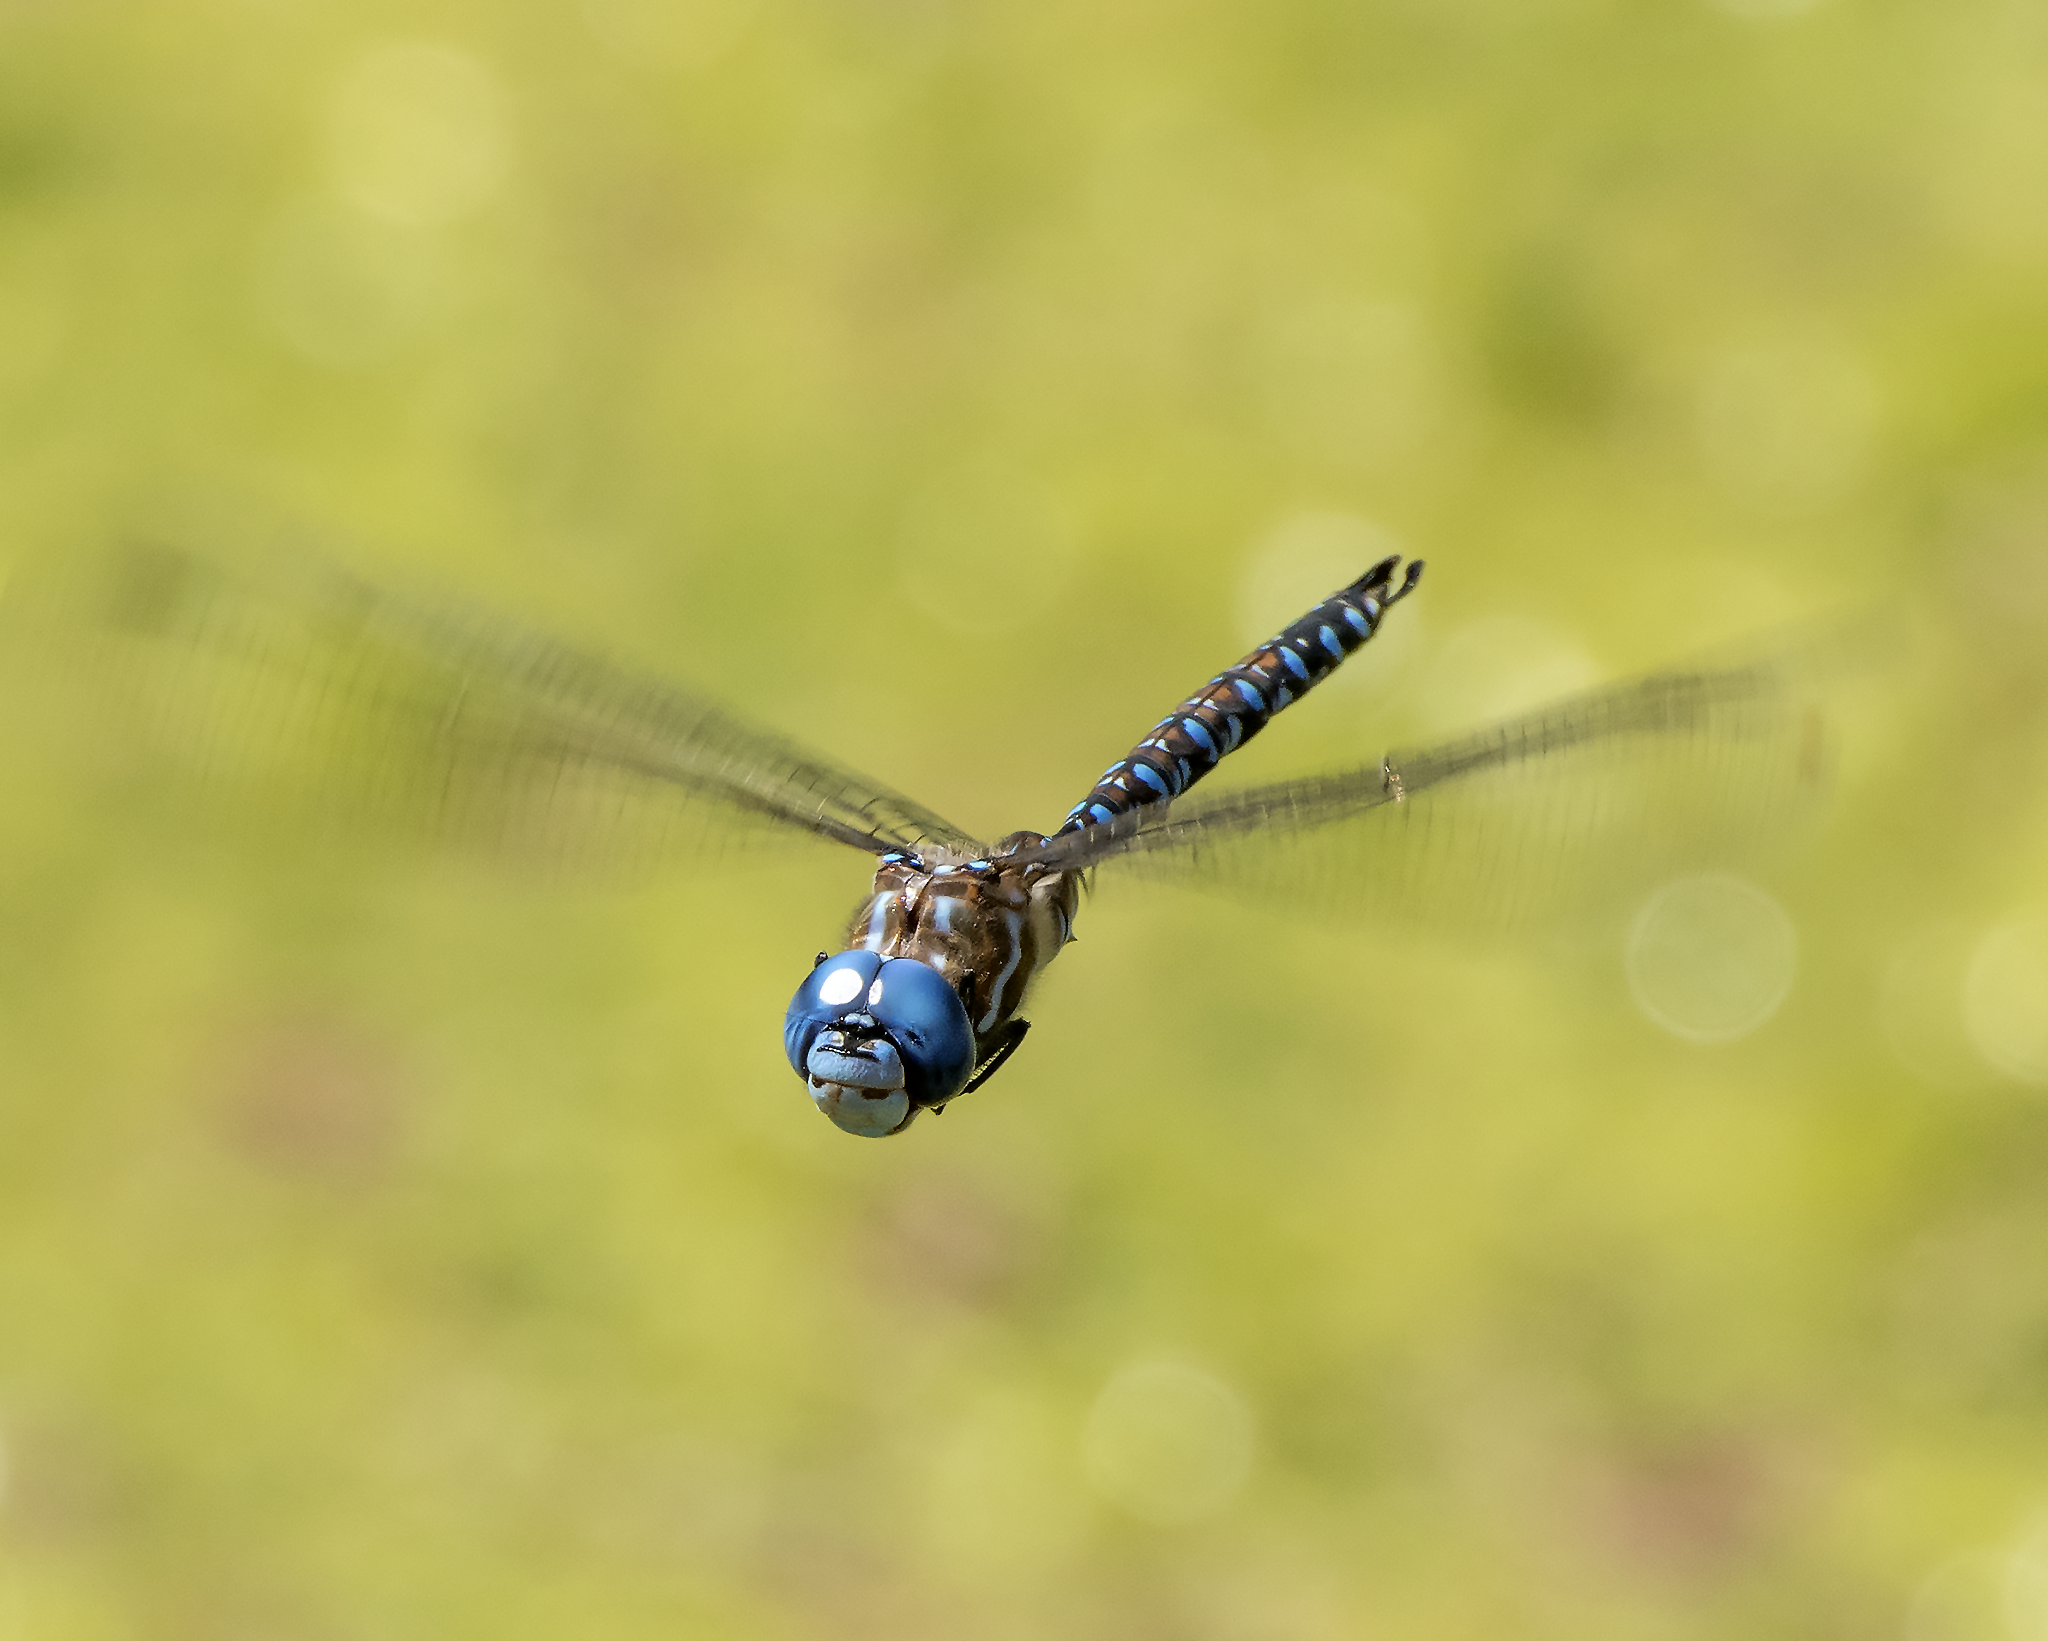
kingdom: Animalia
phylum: Arthropoda
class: Insecta
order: Odonata
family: Aeshnidae
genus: Rhionaeschna
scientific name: Rhionaeschna multicolor
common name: Blue-eyed darner
